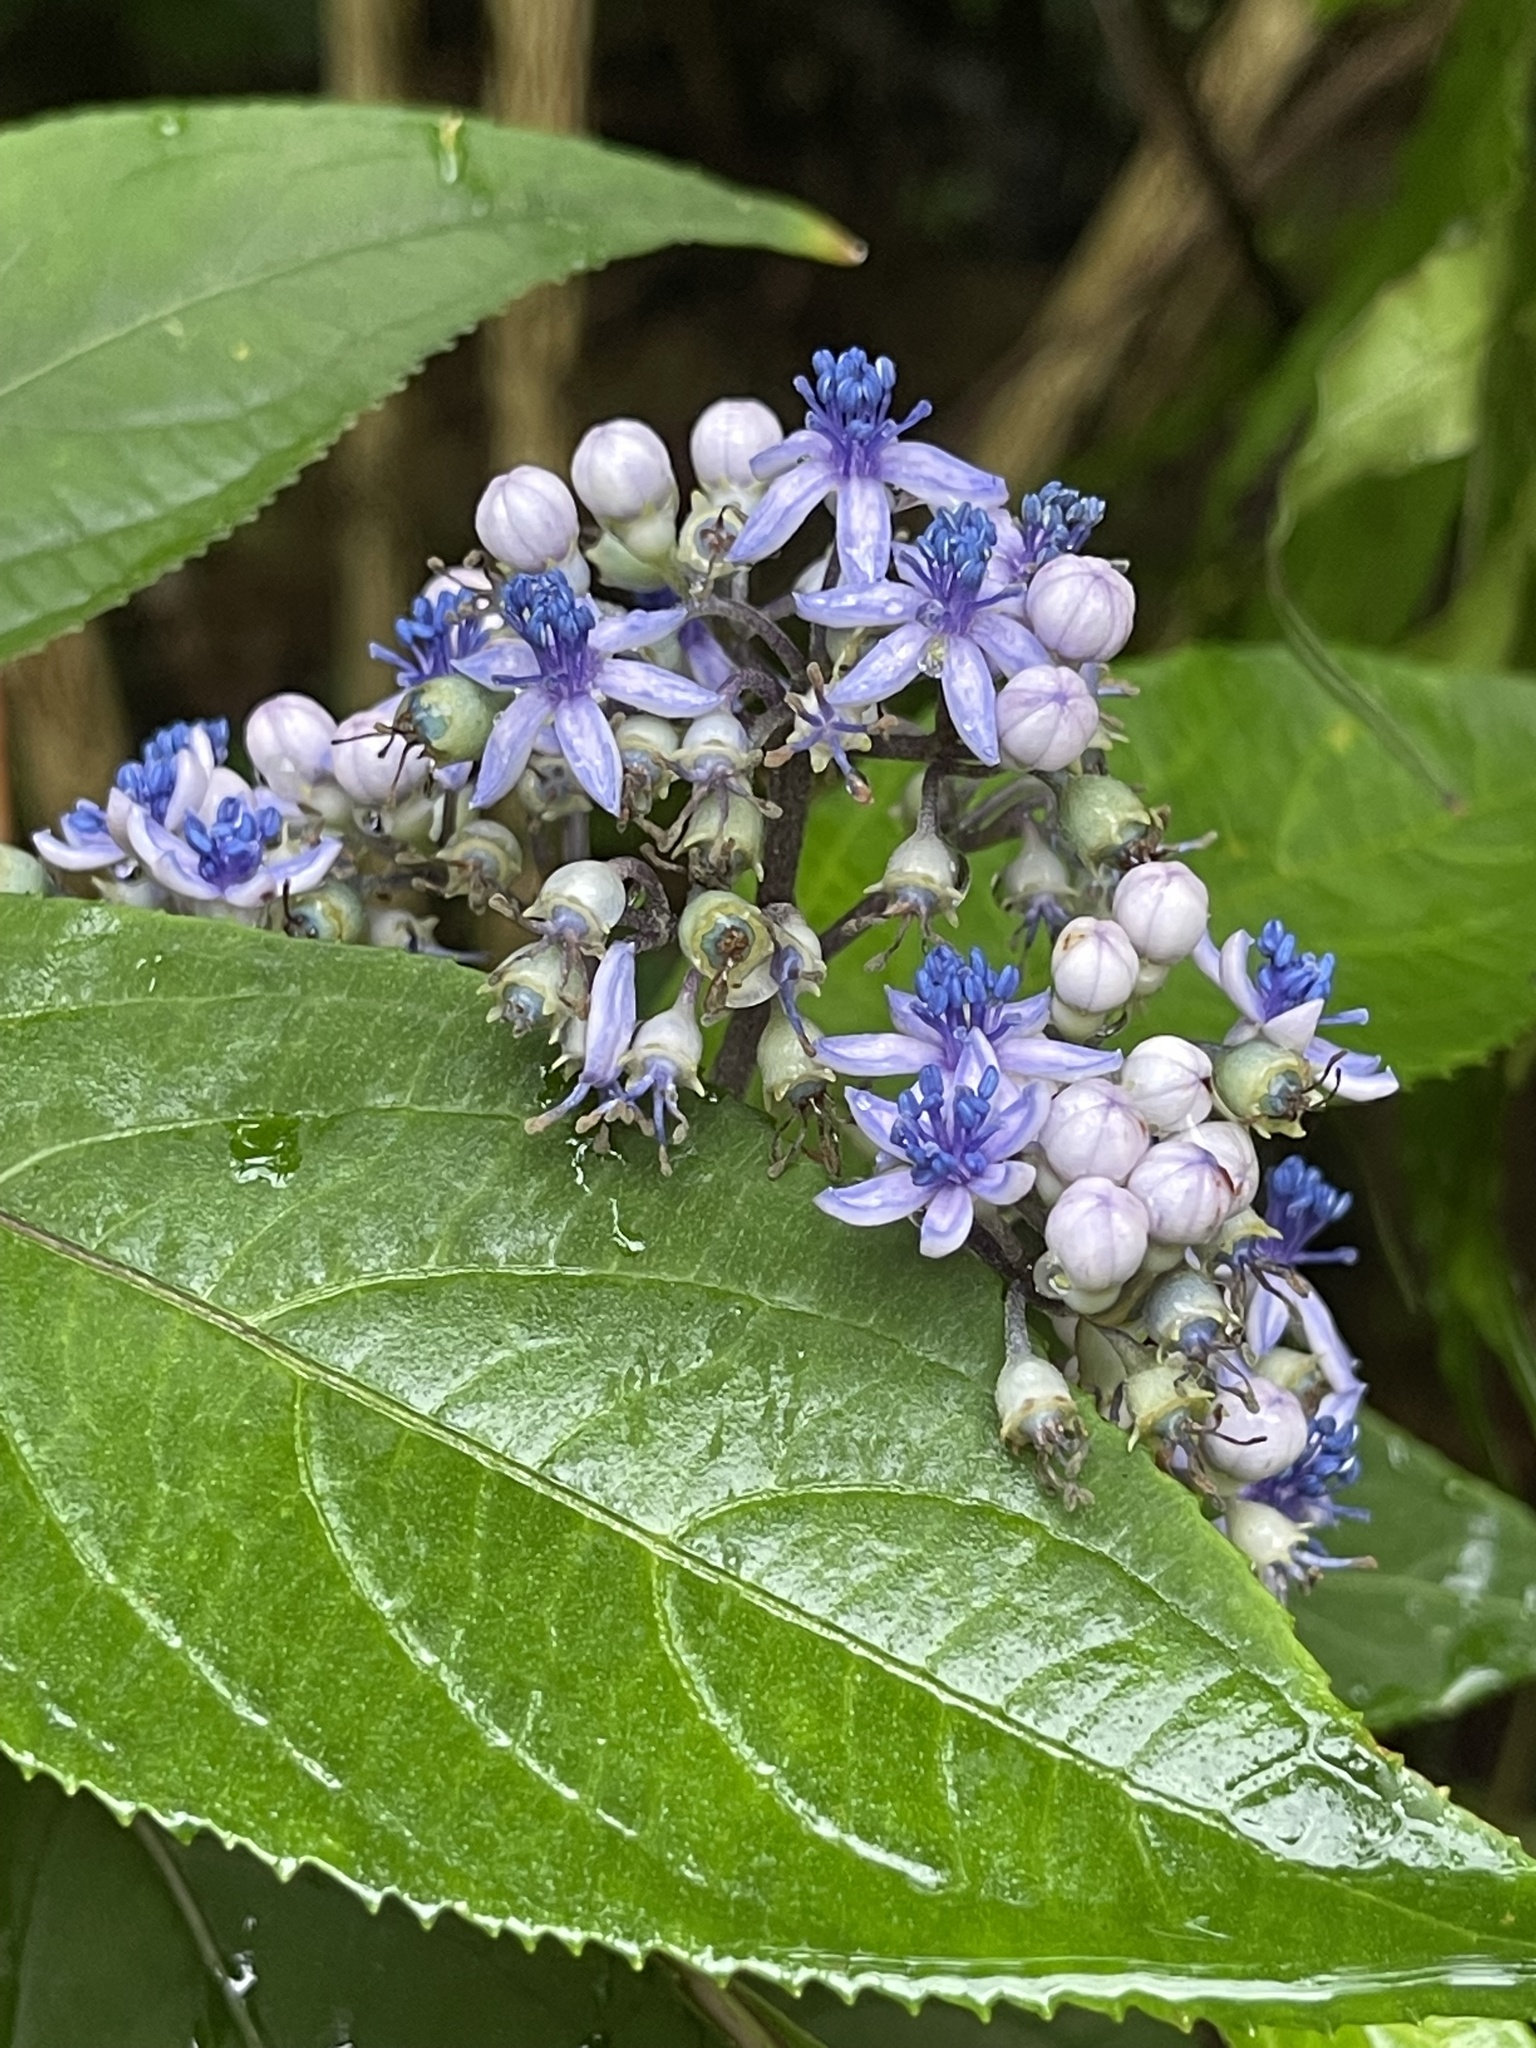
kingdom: Plantae
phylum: Tracheophyta
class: Magnoliopsida
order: Cornales
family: Hydrangeaceae
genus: Hydrangea
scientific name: Hydrangea febrifuga
